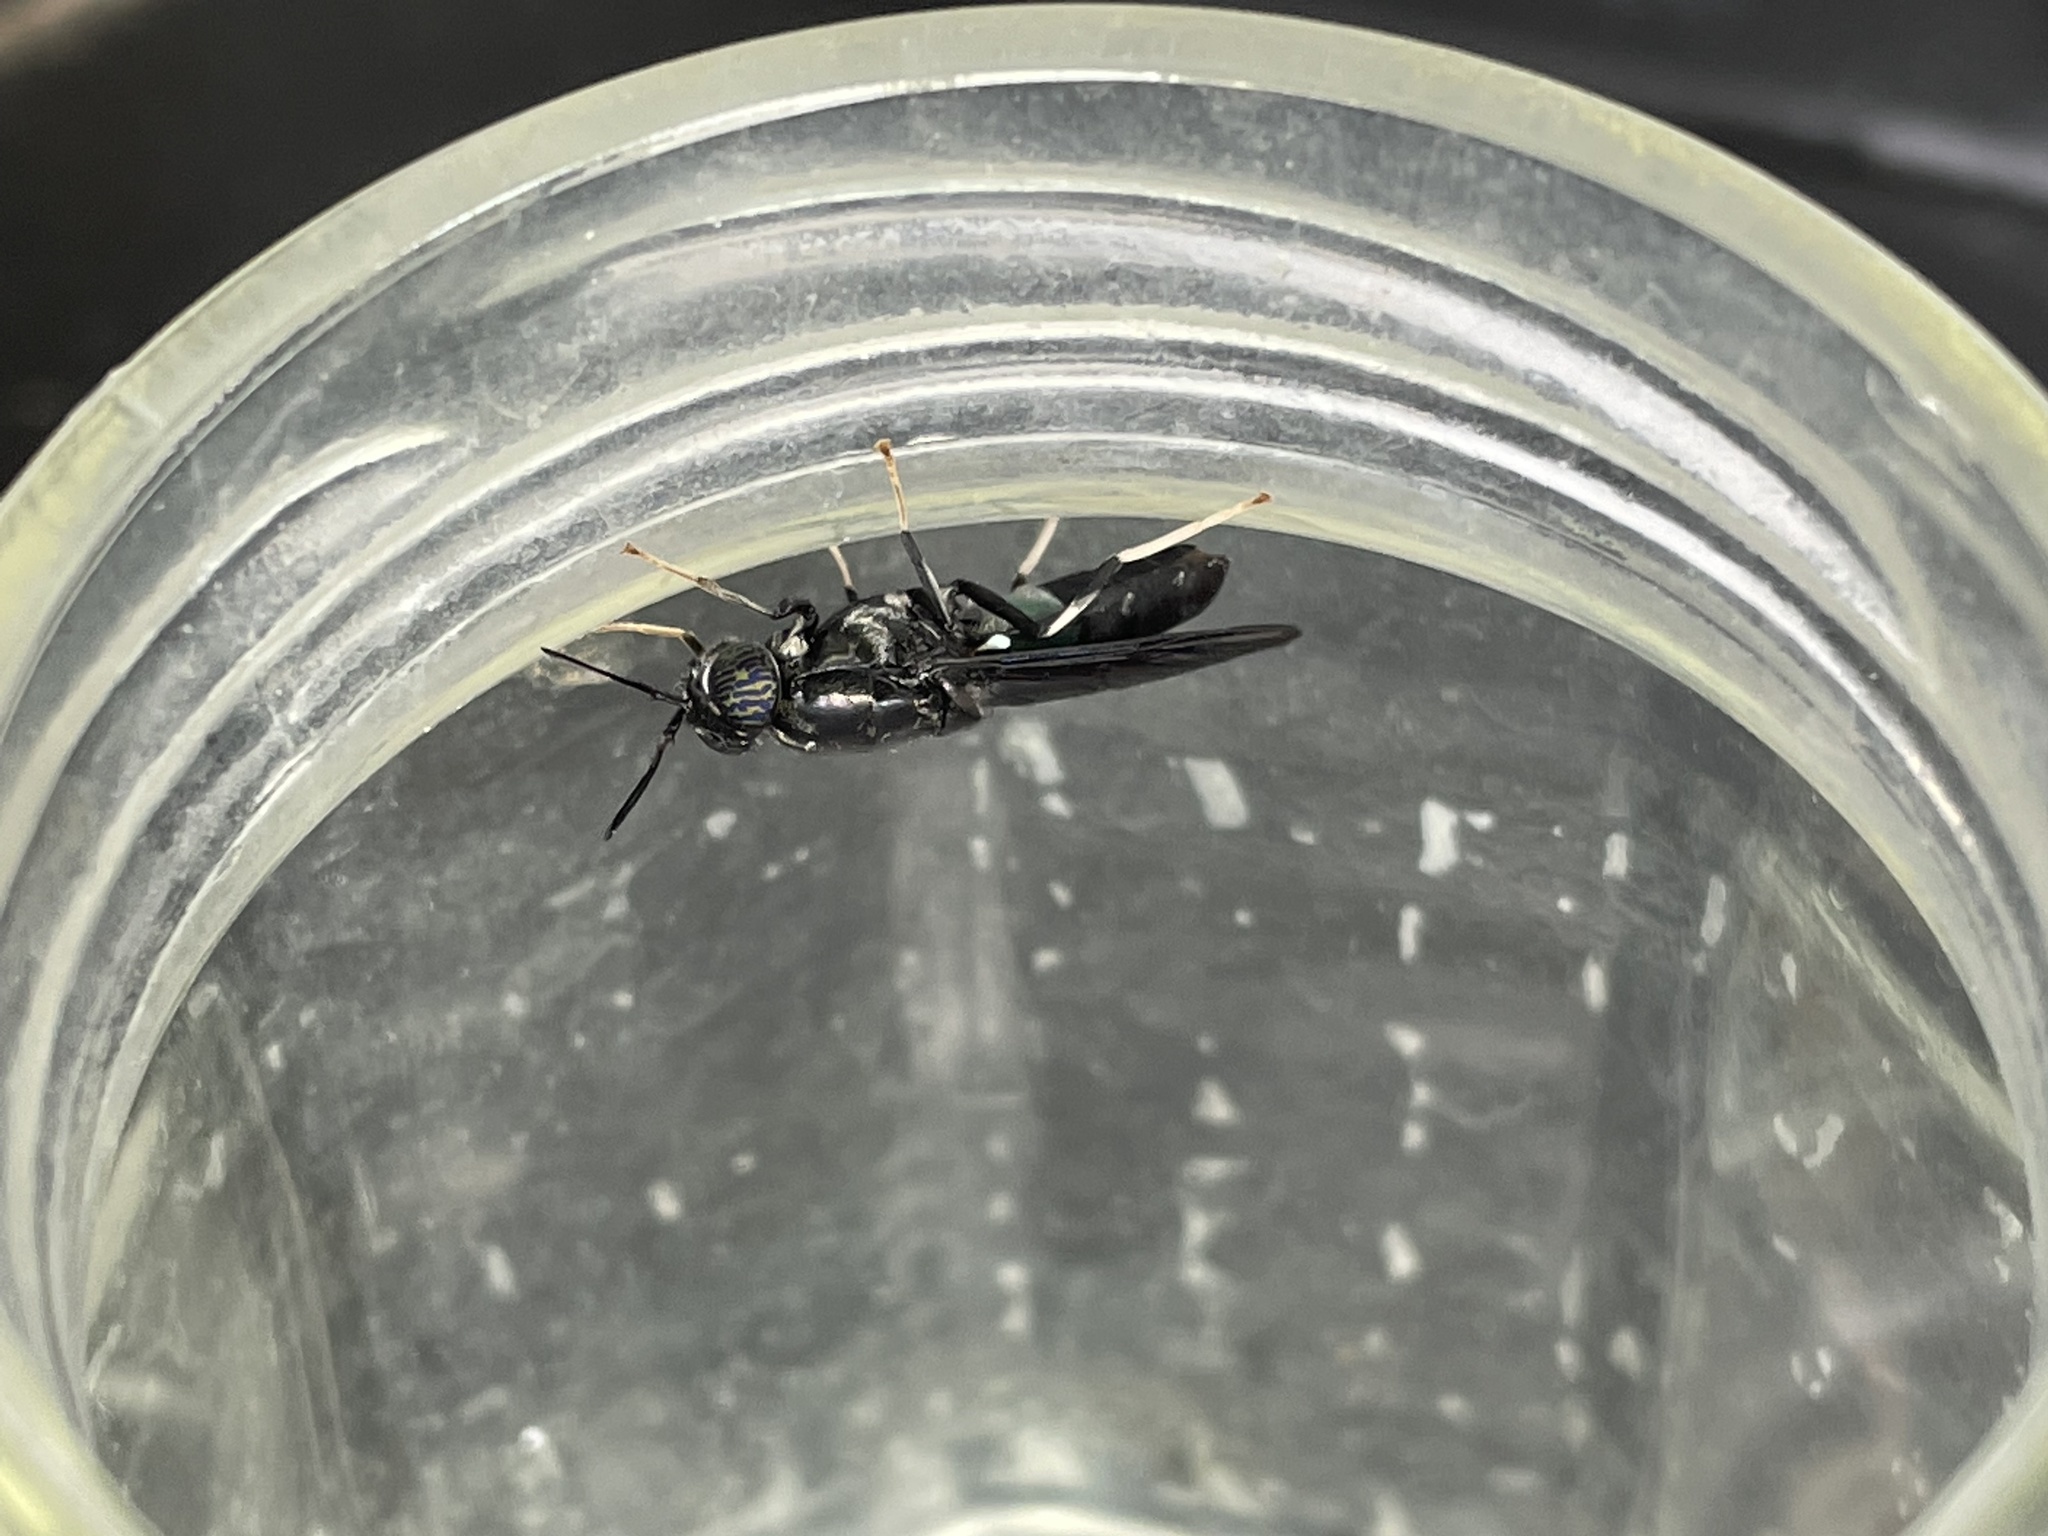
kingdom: Animalia
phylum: Arthropoda
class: Insecta
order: Diptera
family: Stratiomyidae
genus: Hermetia
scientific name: Hermetia illucens
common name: Black soldier fly
